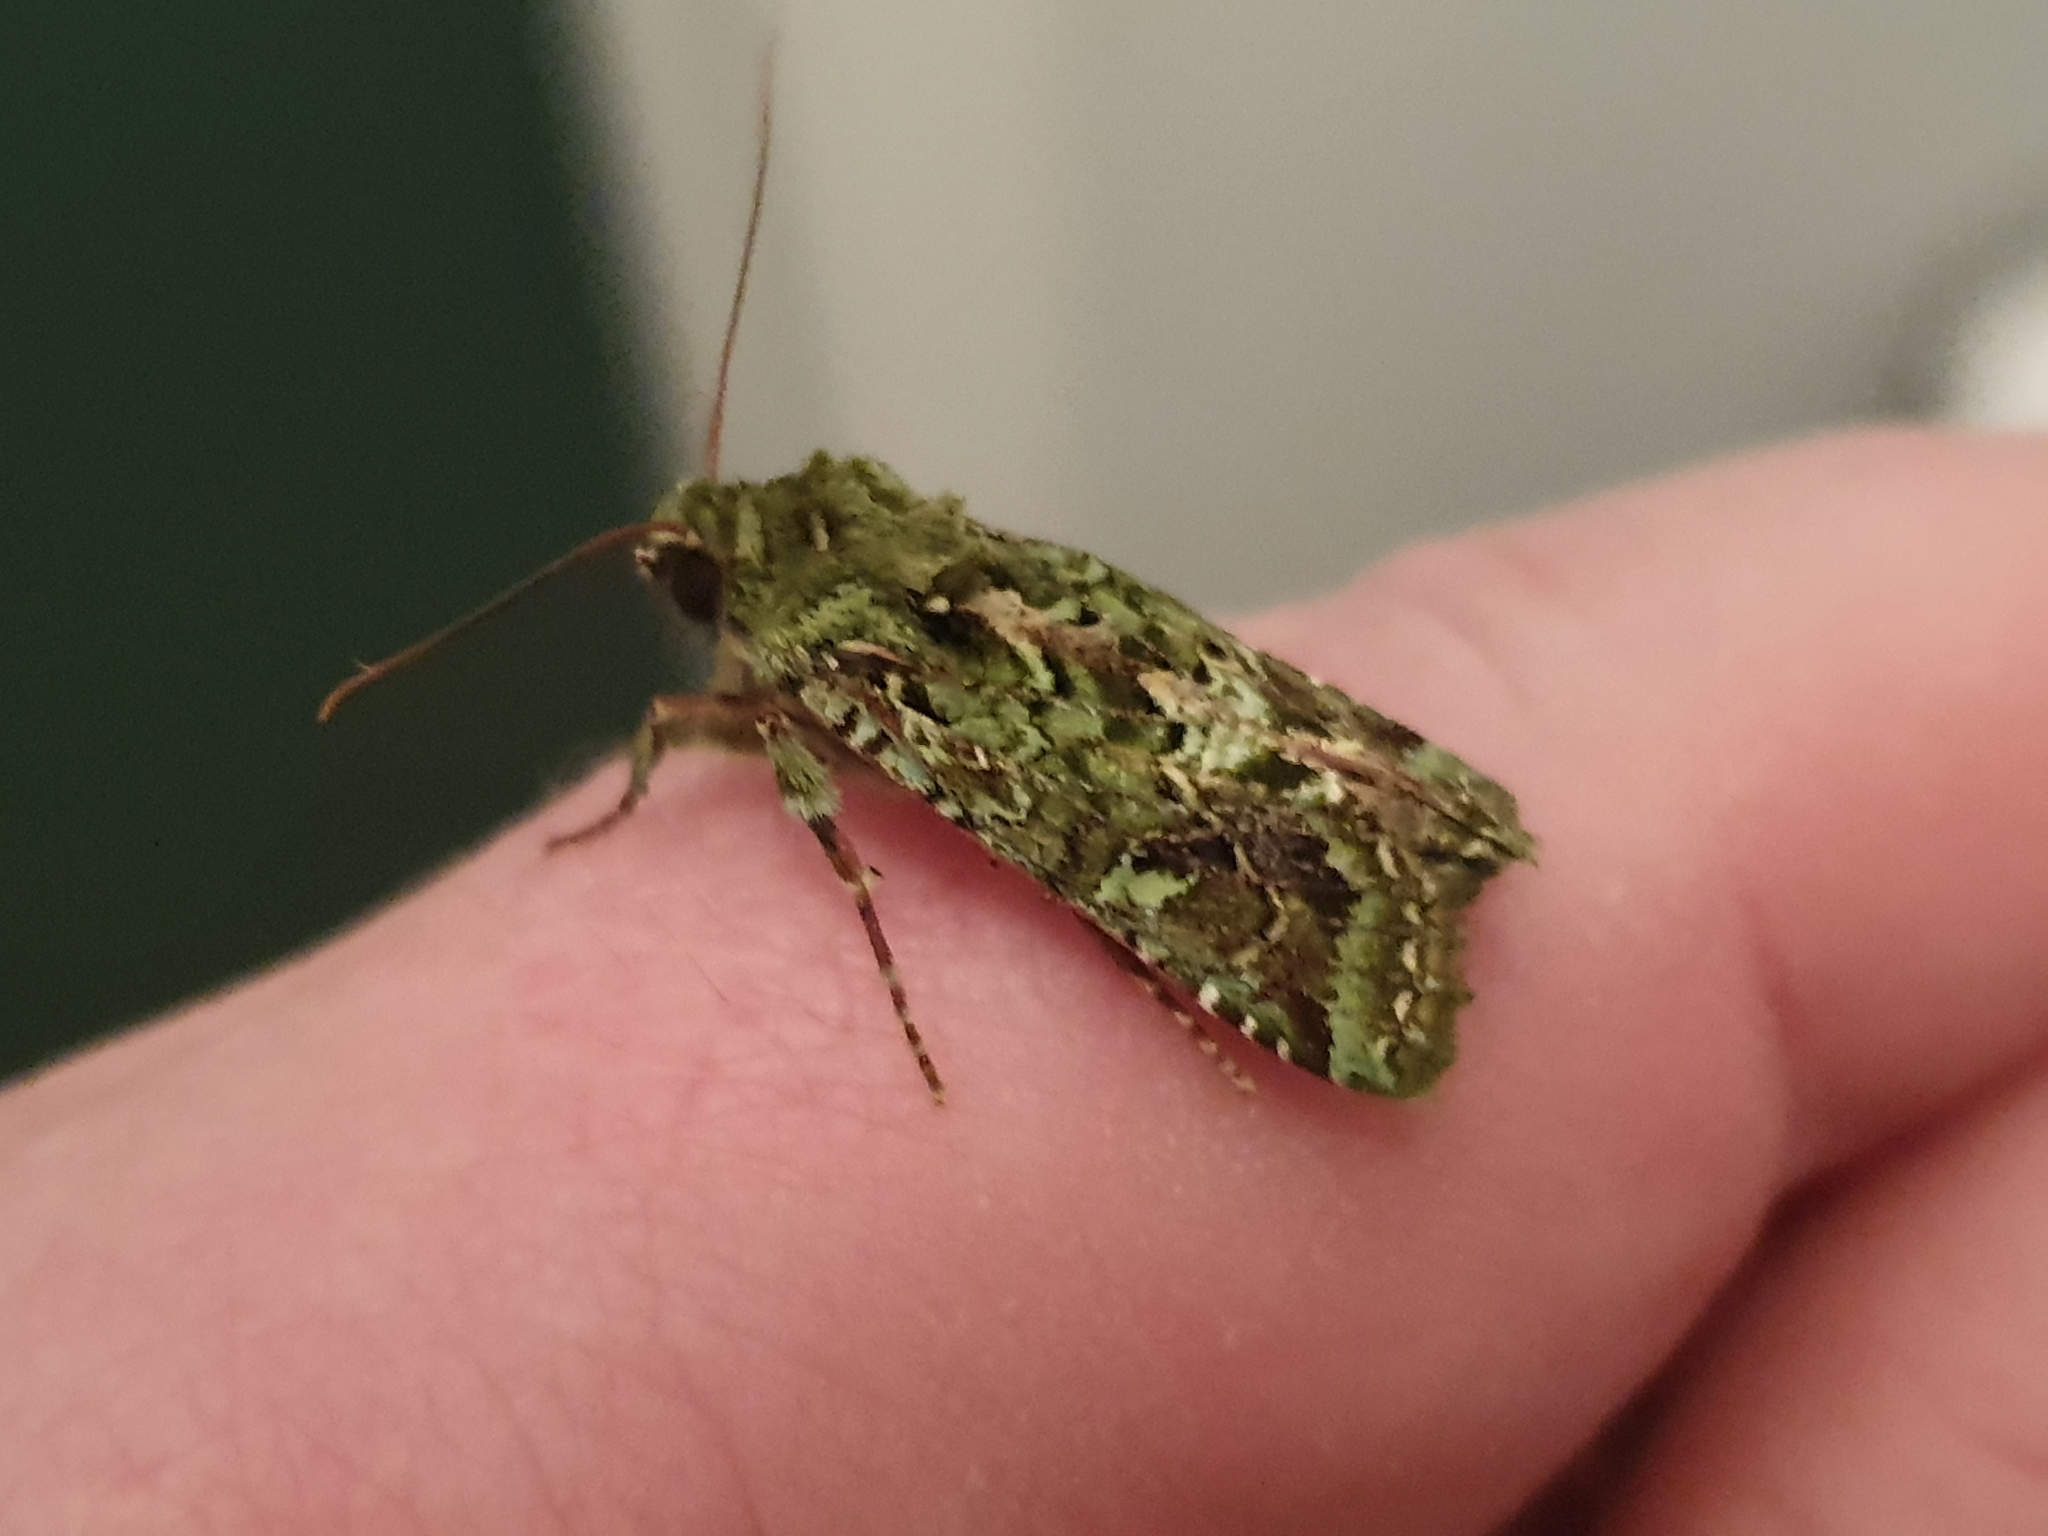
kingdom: Animalia
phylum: Arthropoda
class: Insecta
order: Lepidoptera
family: Noctuidae
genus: Feredayia
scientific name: Feredayia grammosa
